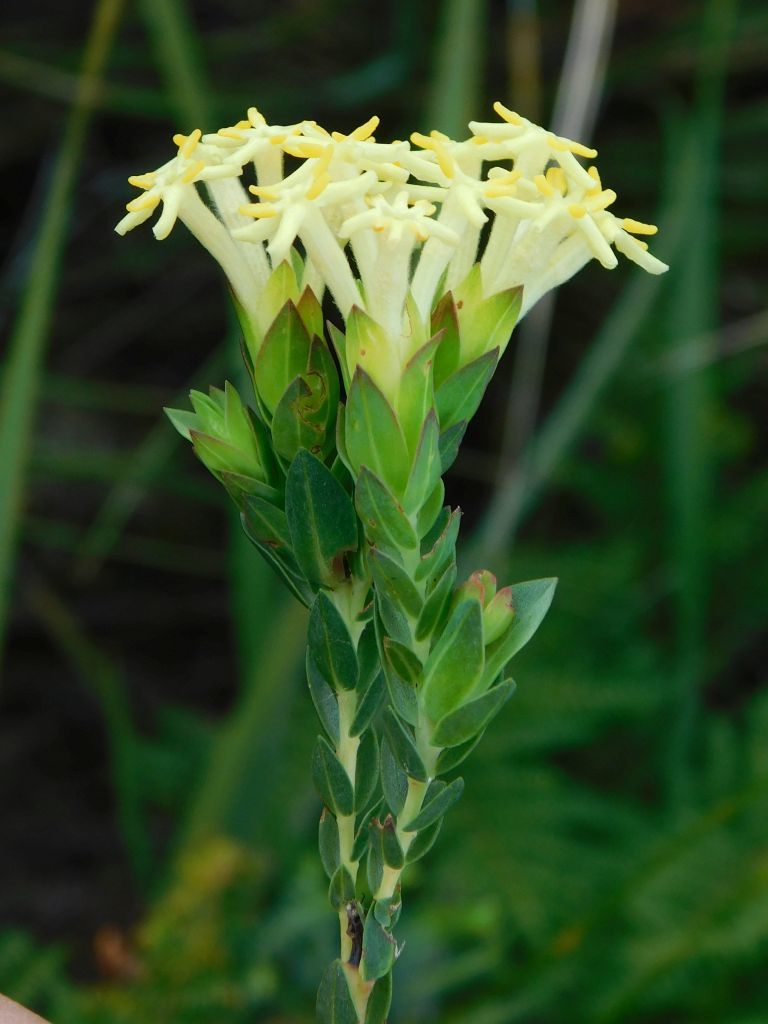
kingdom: Plantae
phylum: Tracheophyta
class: Magnoliopsida
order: Malvales
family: Thymelaeaceae
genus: Gnidia
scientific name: Gnidia oppositifolia
